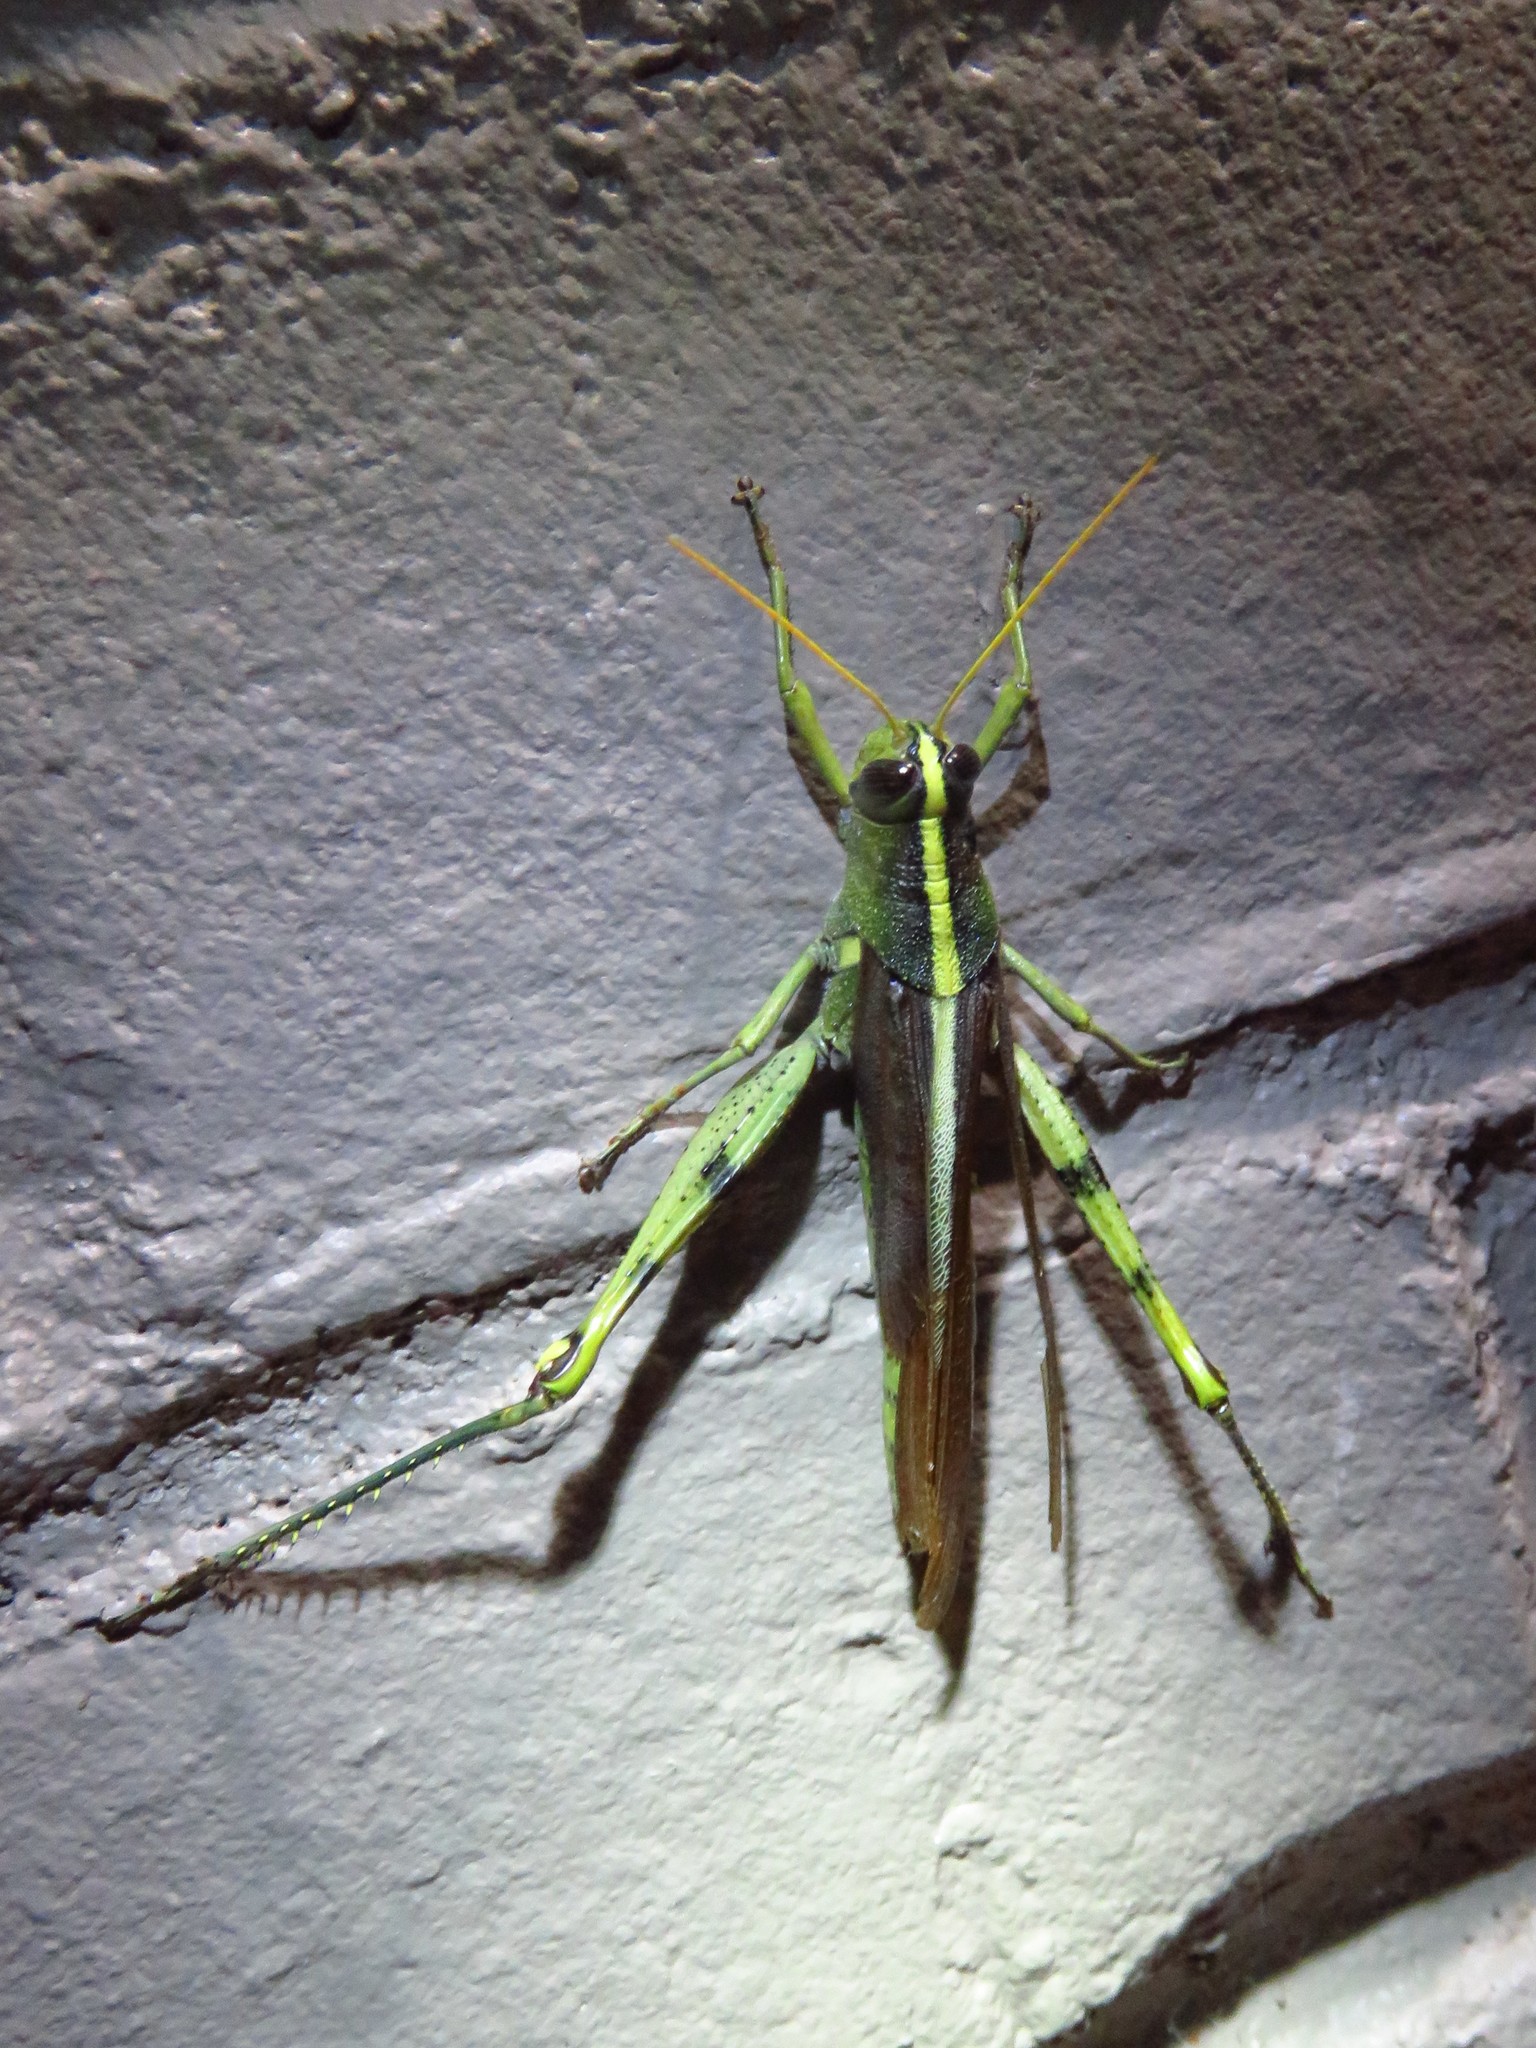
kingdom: Animalia
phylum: Arthropoda
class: Insecta
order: Orthoptera
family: Acrididae
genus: Schistocerca
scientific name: Schistocerca obscura
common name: Obscure bird grasshopper
